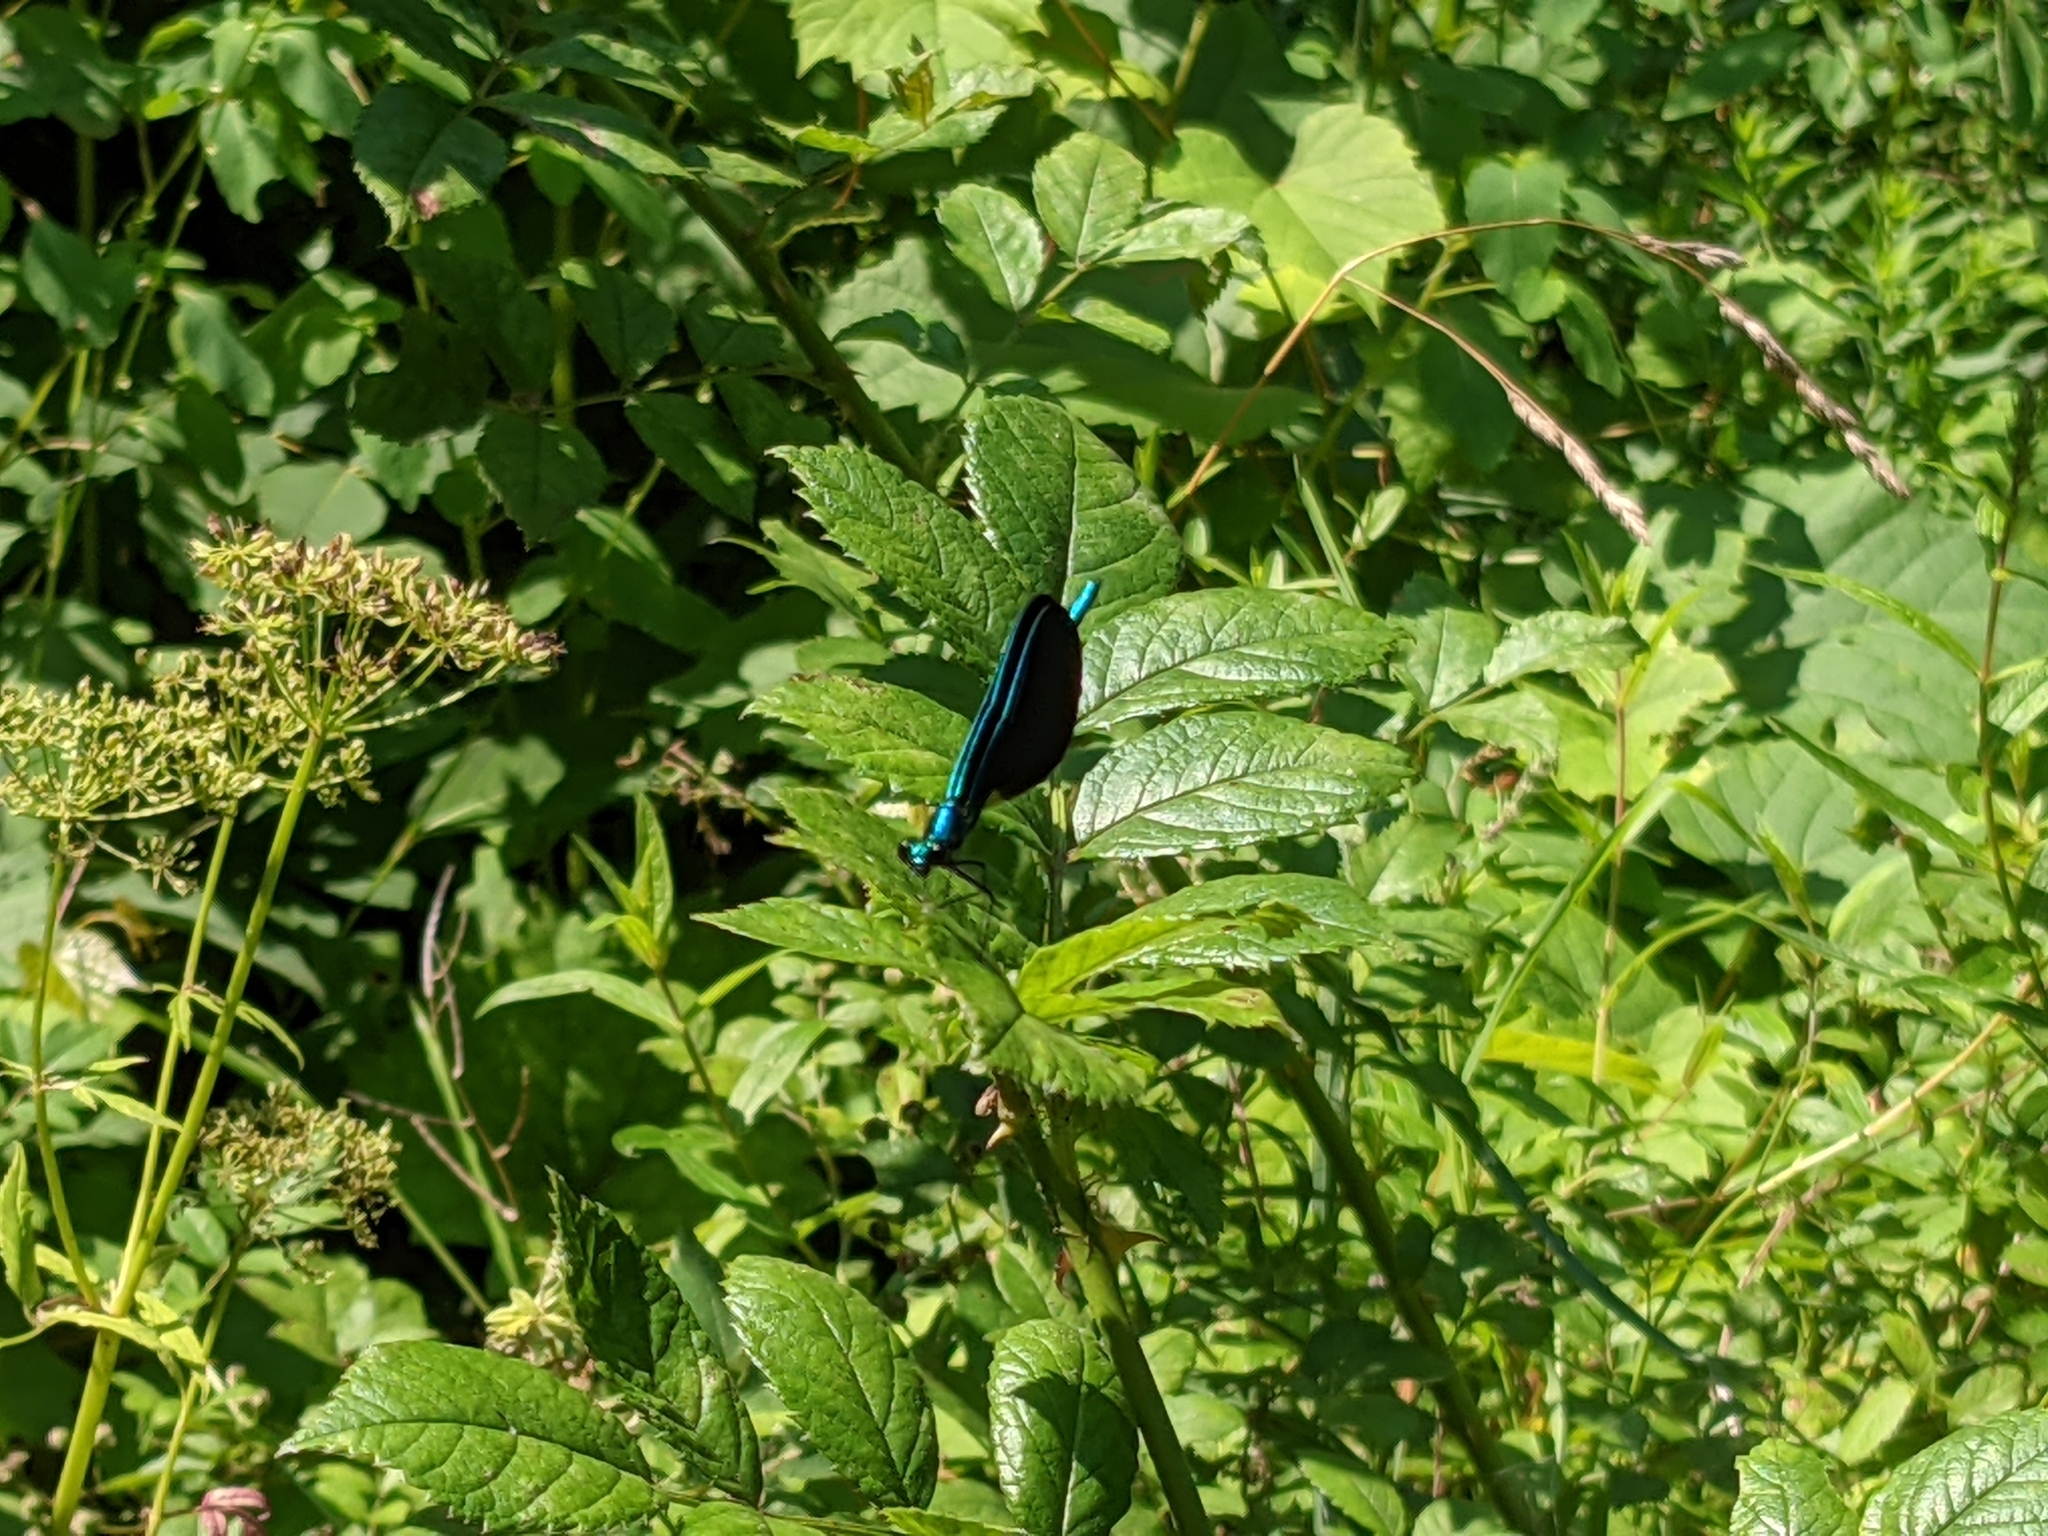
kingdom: Animalia
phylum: Arthropoda
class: Insecta
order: Odonata
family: Calopterygidae
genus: Calopteryx
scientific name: Calopteryx maculata
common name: Ebony jewelwing
